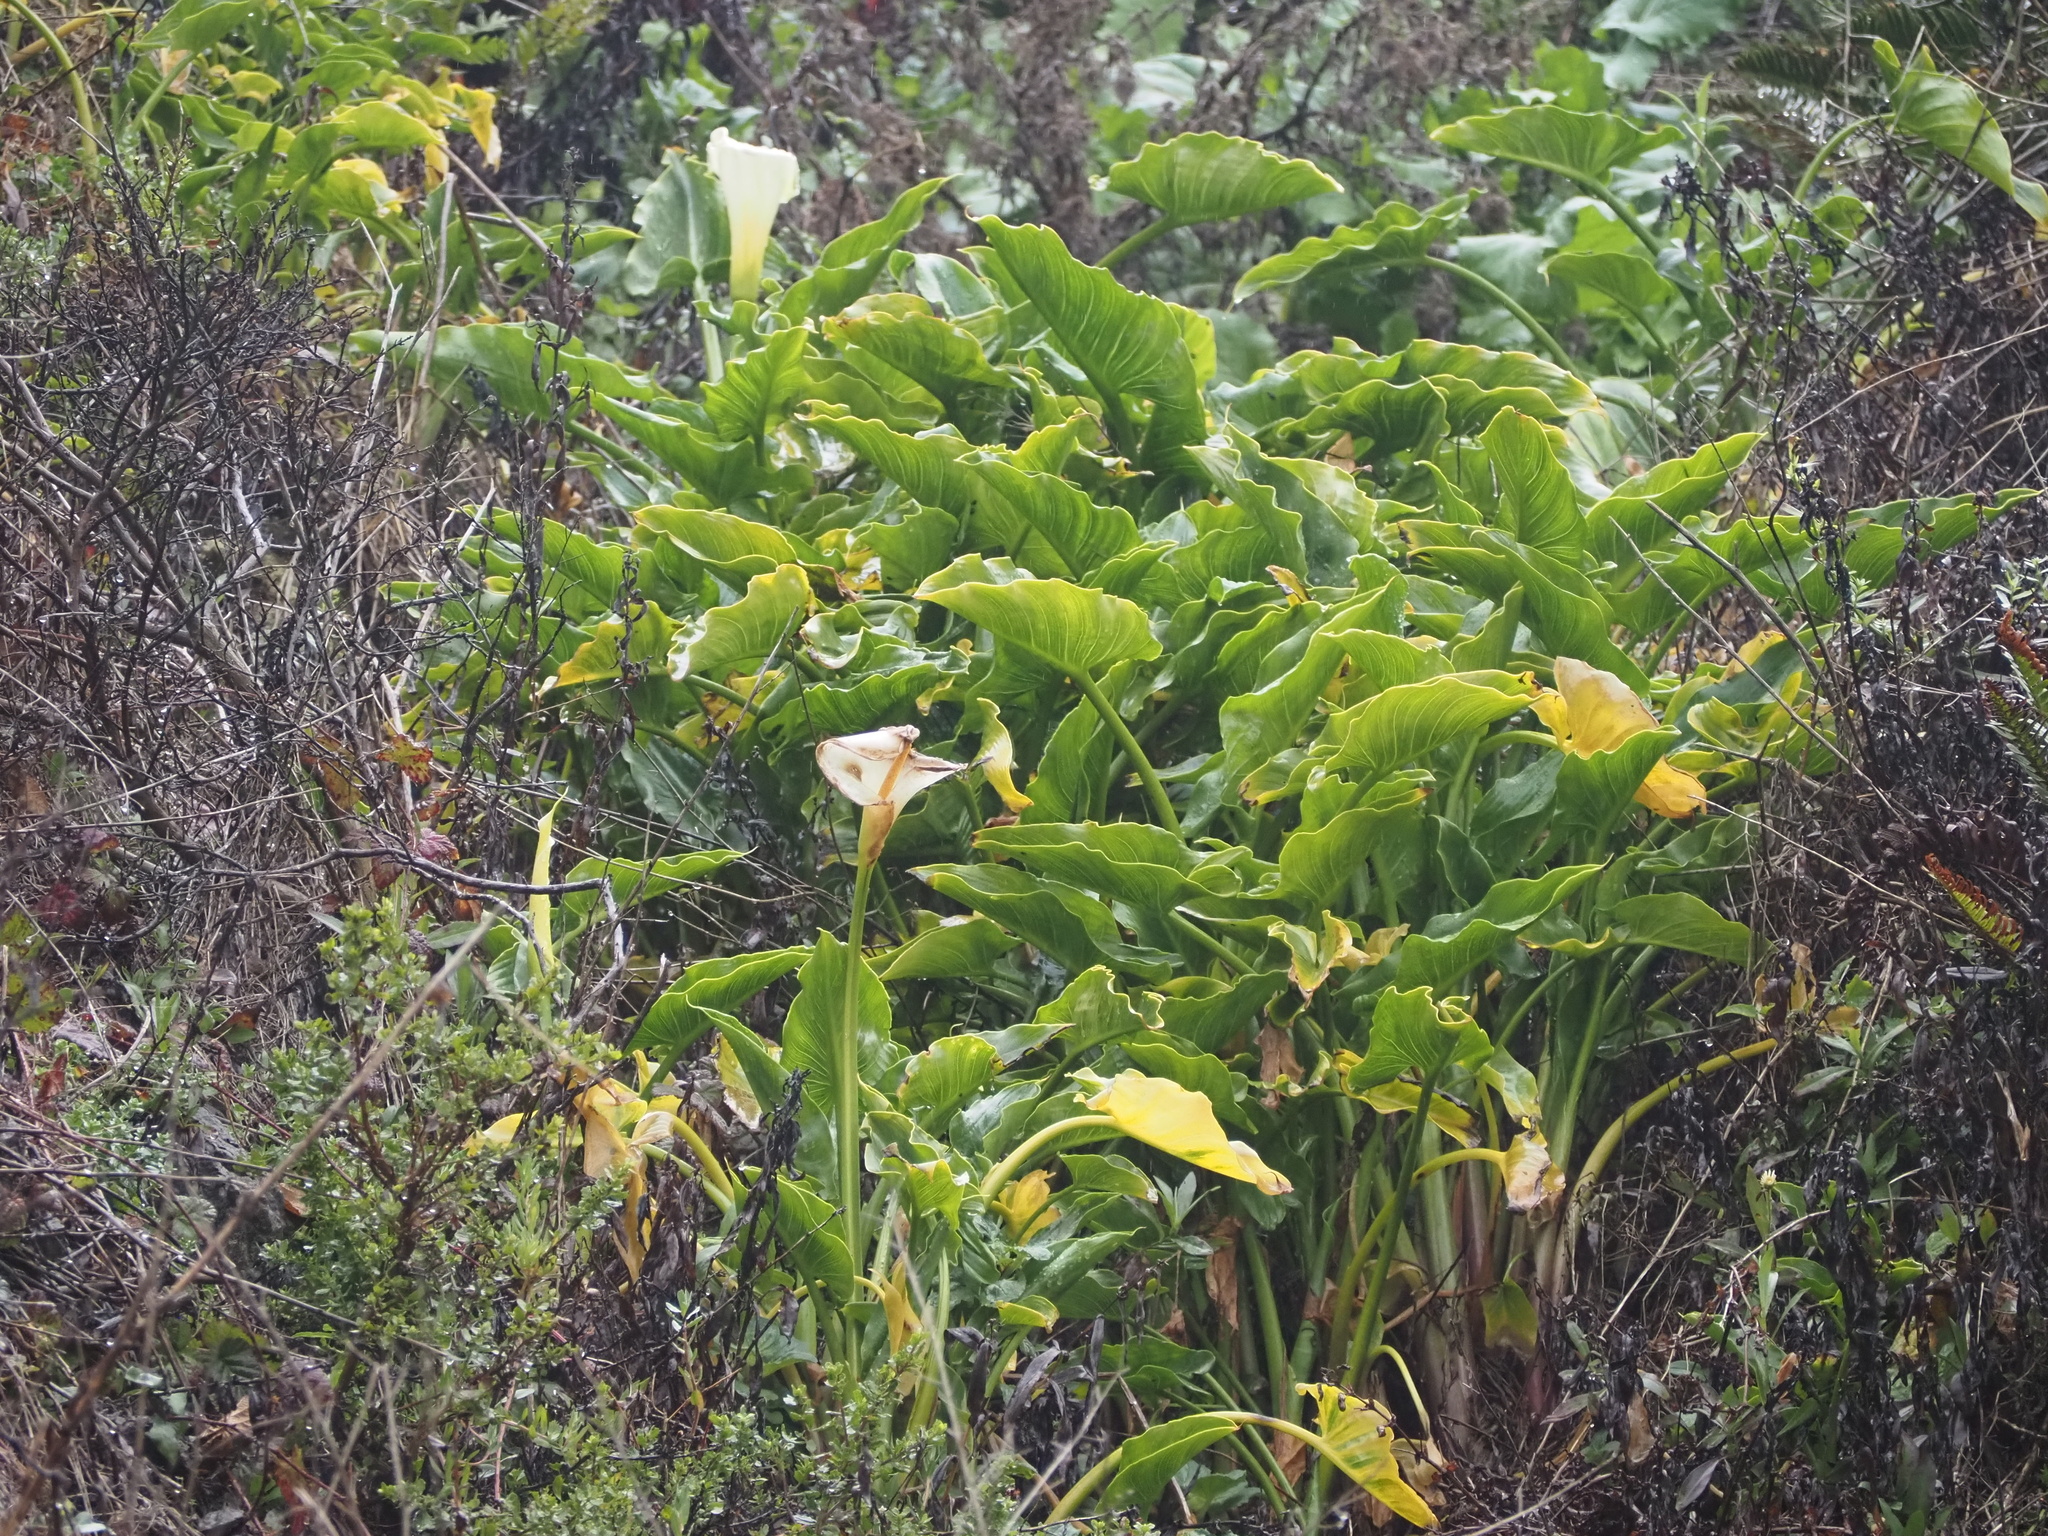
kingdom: Plantae
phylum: Tracheophyta
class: Liliopsida
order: Alismatales
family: Araceae
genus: Zantedeschia
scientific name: Zantedeschia aethiopica
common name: Altar-lily
